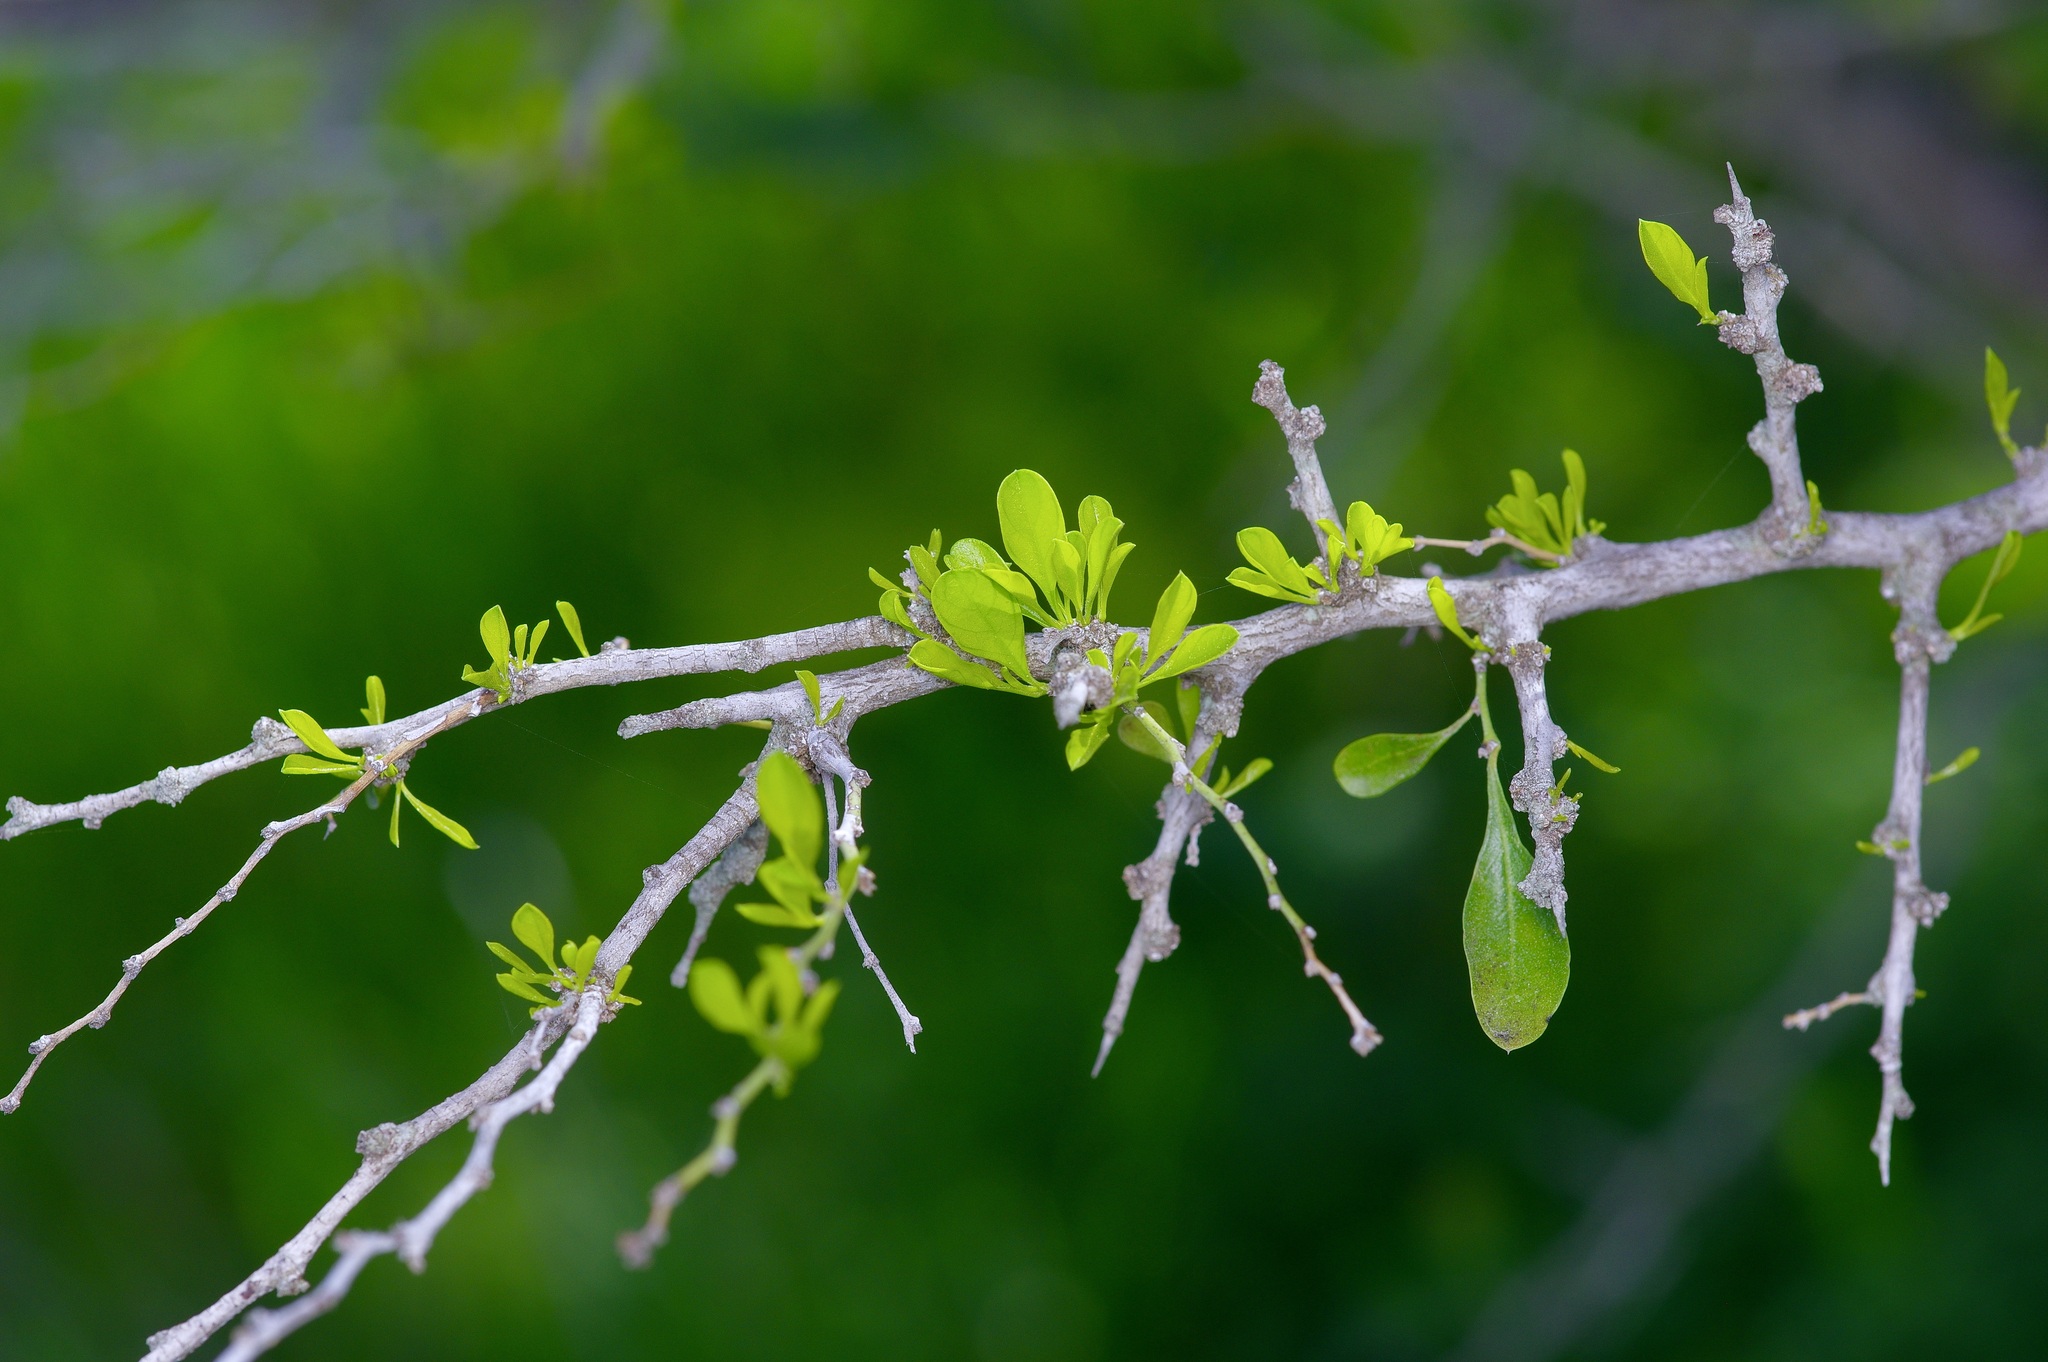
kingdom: Plantae
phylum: Tracheophyta
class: Magnoliopsida
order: Rosales
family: Rhamnaceae
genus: Condalia
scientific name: Condalia hookeri
